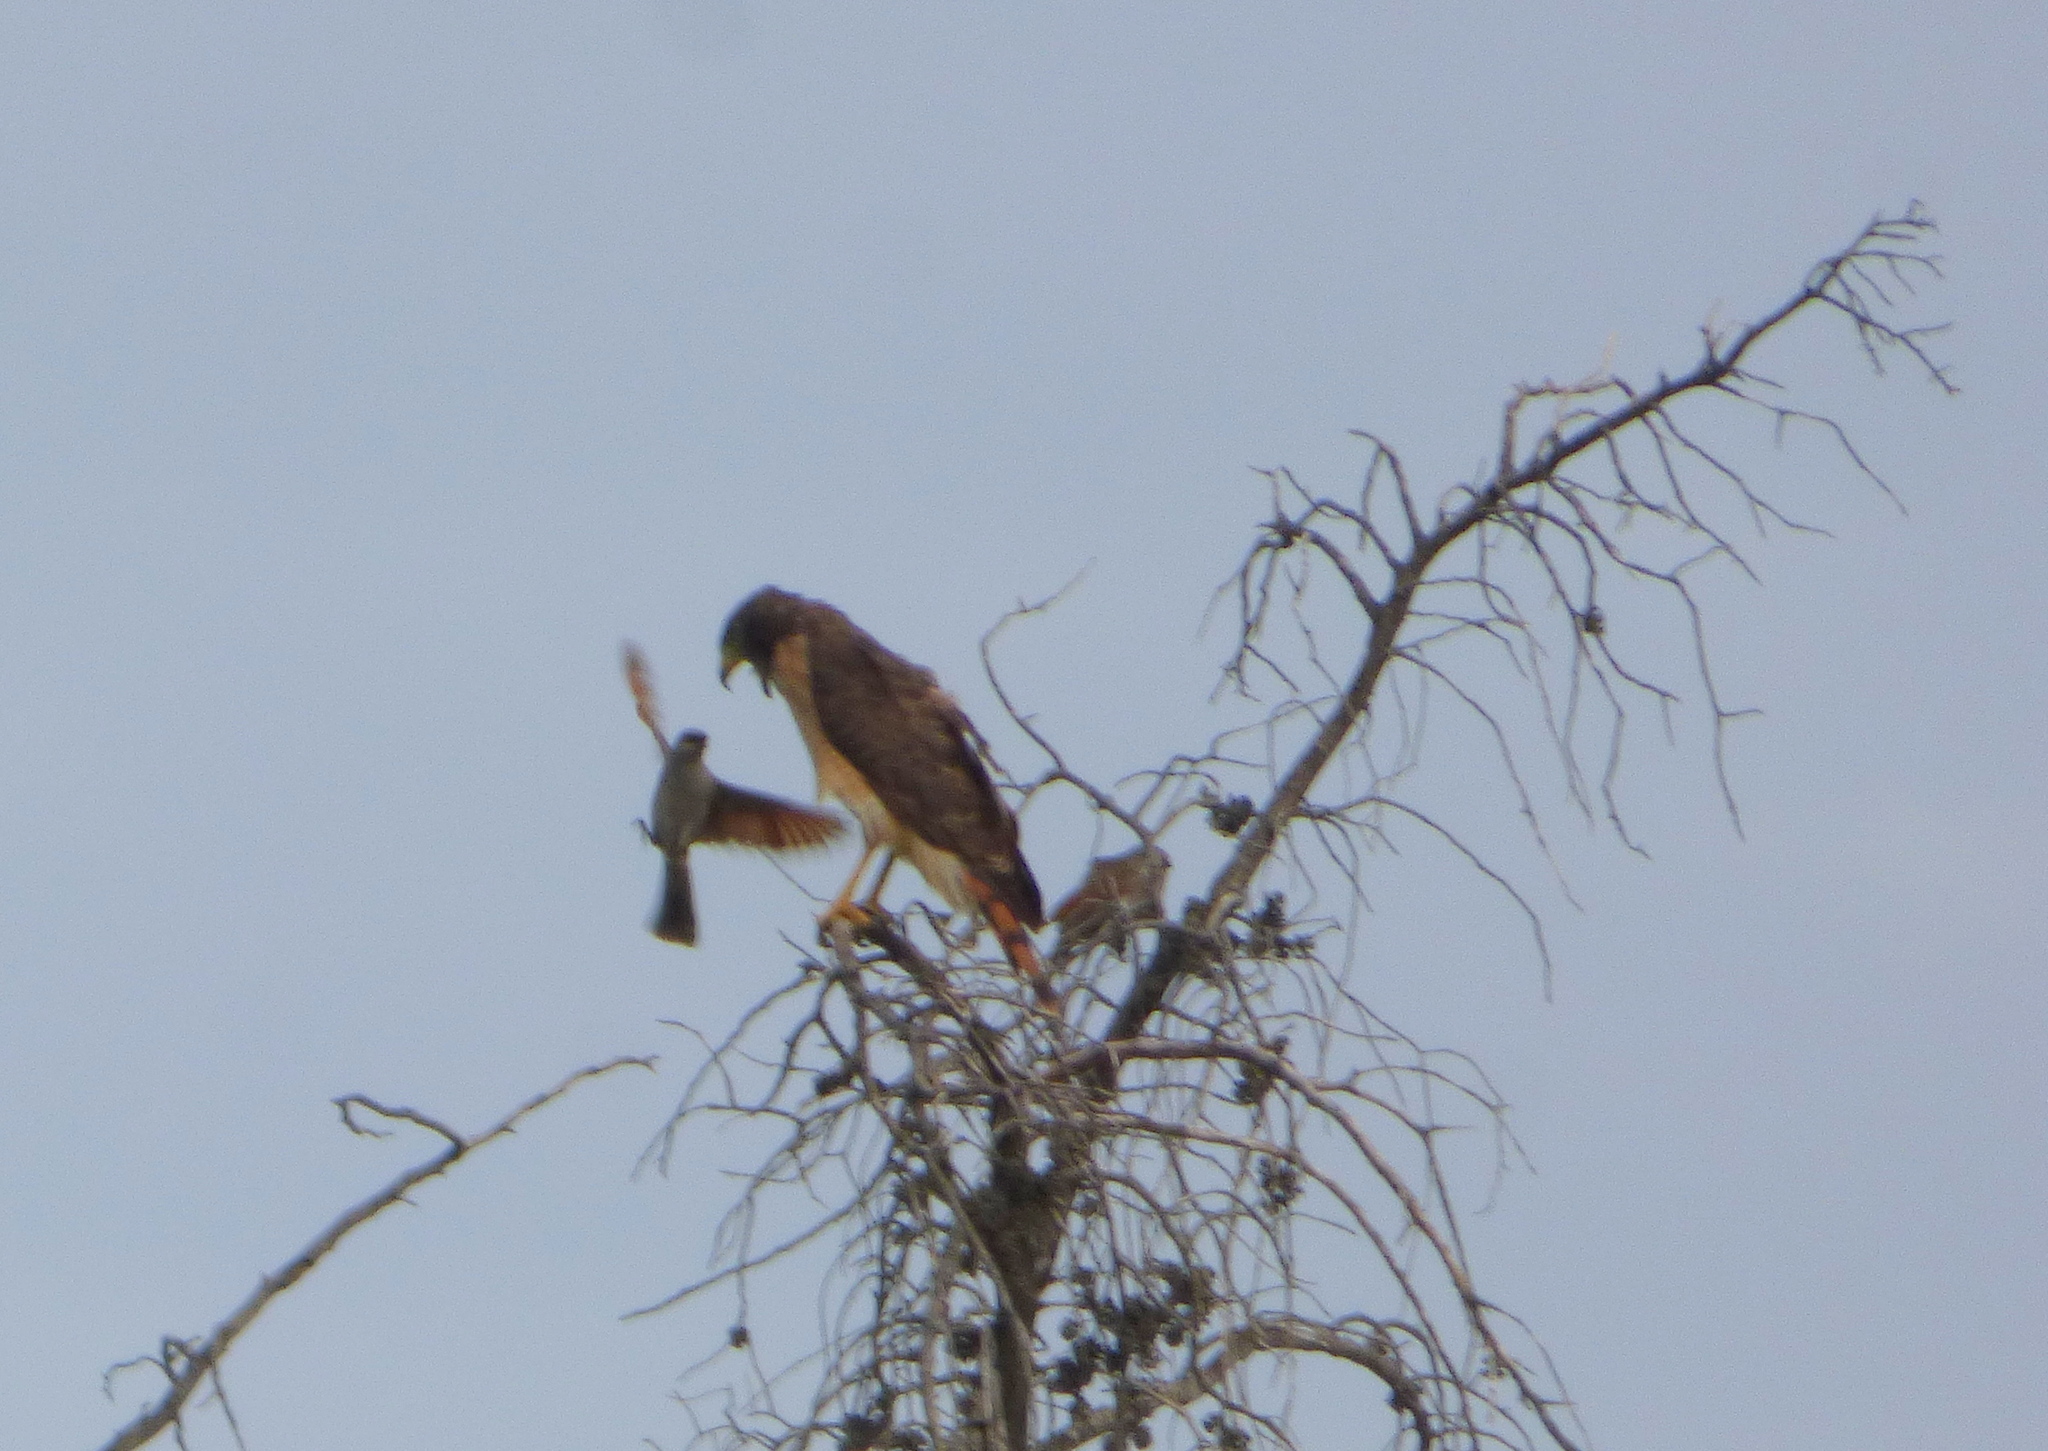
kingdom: Animalia
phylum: Chordata
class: Aves
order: Accipitriformes
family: Accipitridae
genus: Rupornis
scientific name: Rupornis magnirostris
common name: Roadside hawk
